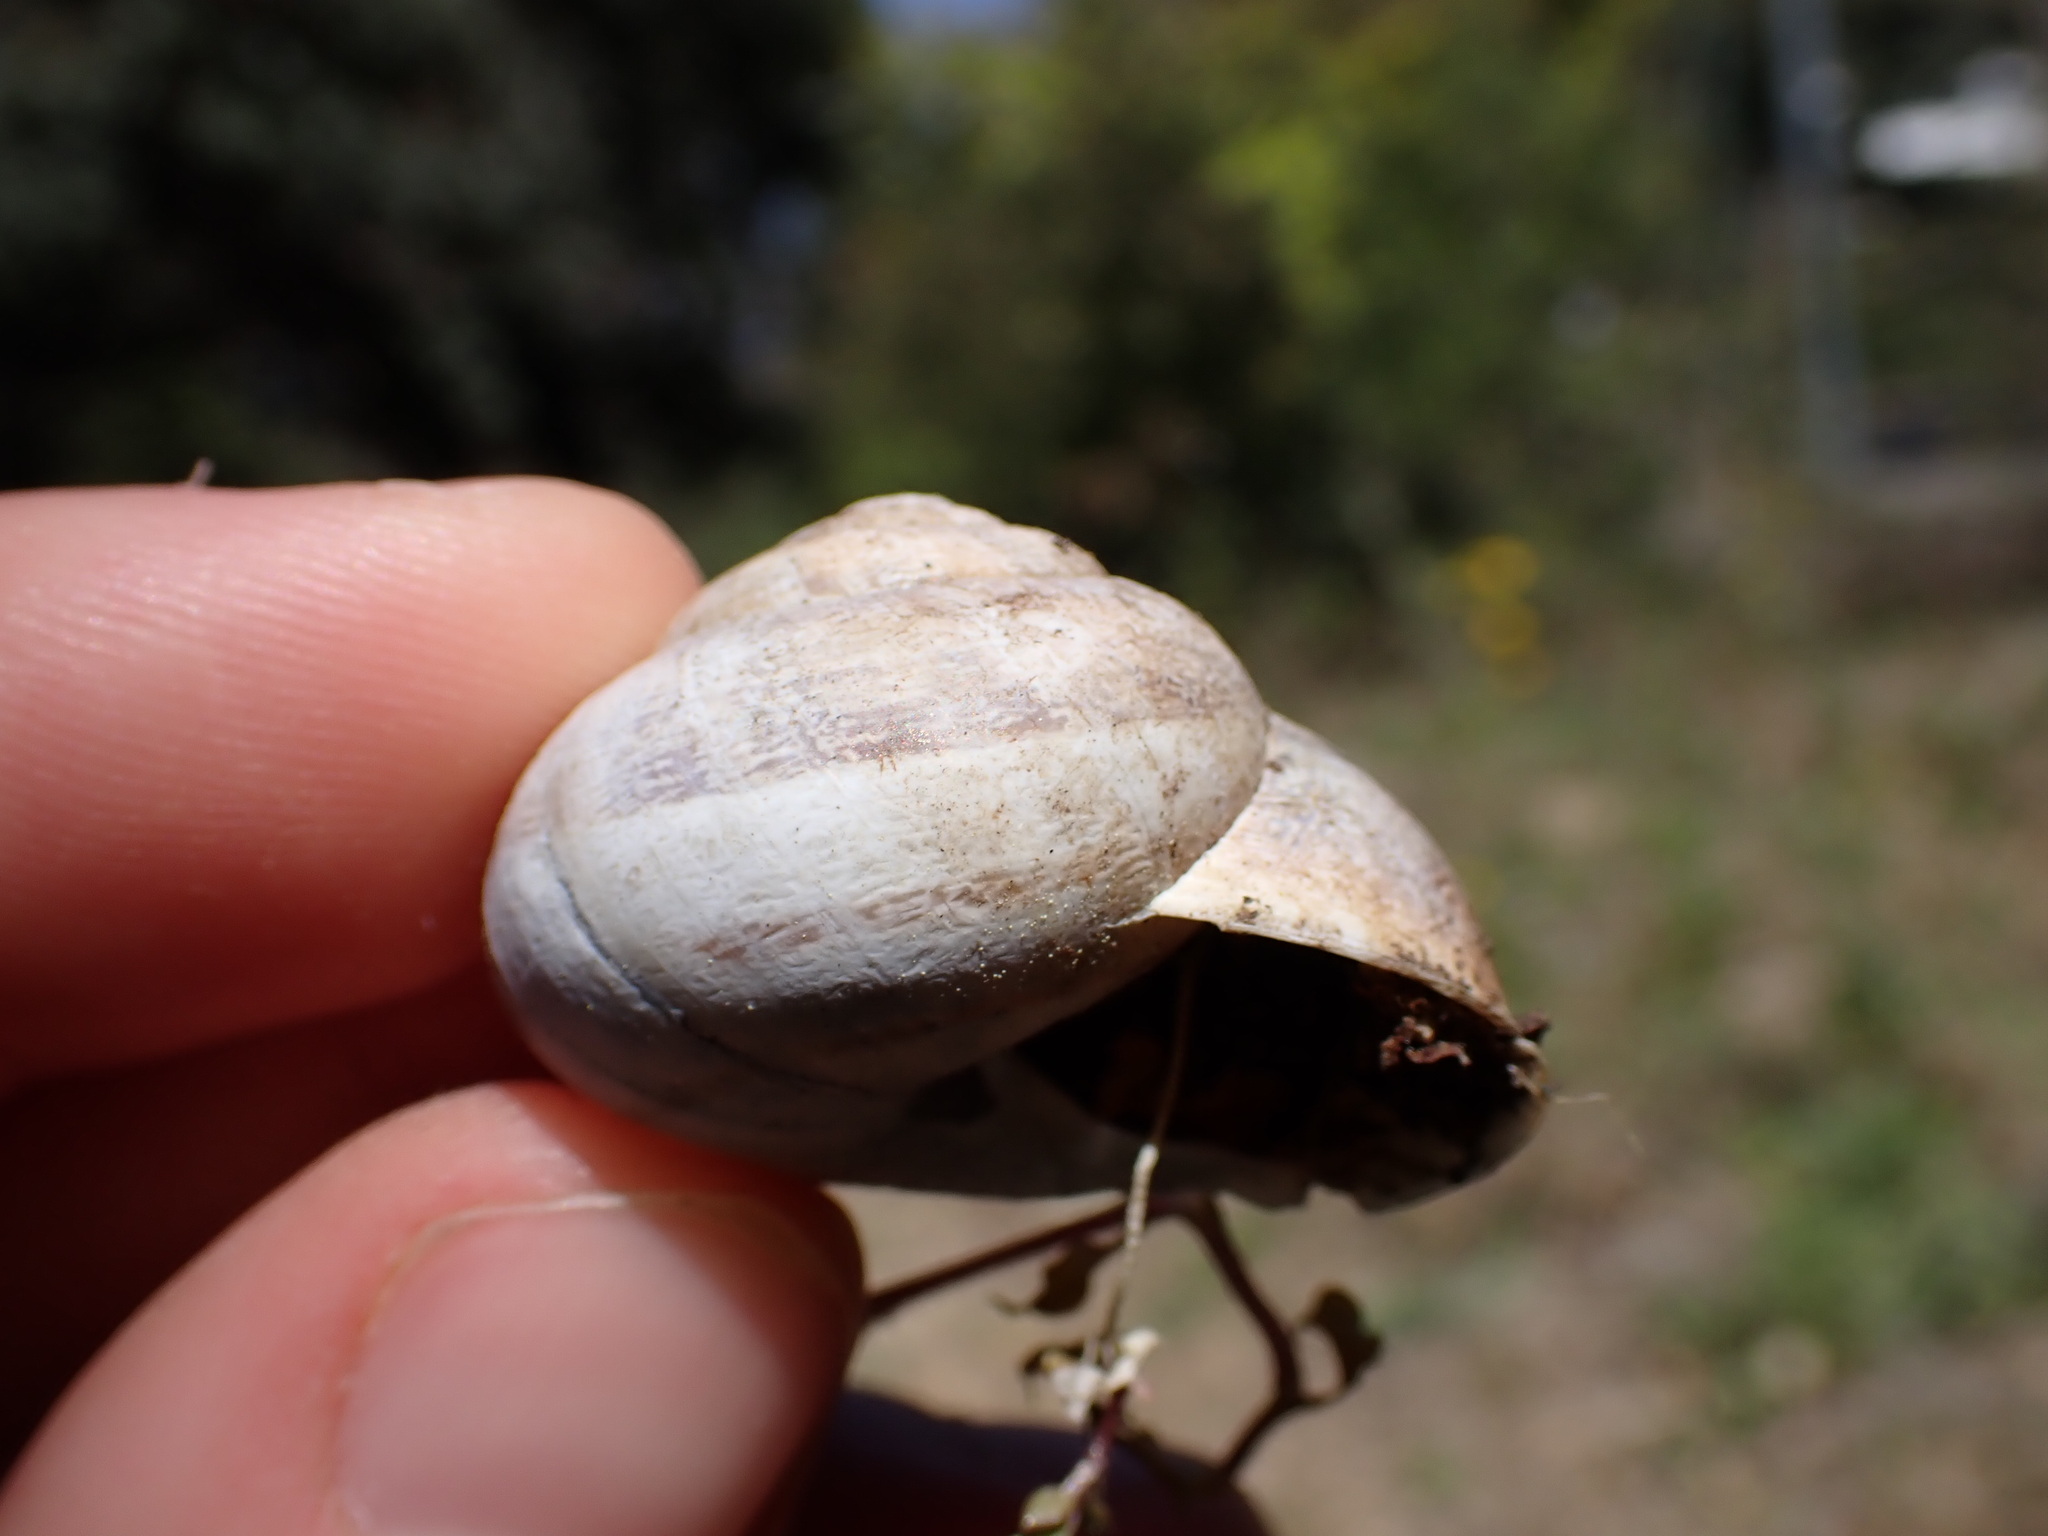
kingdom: Animalia
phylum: Mollusca
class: Gastropoda
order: Stylommatophora
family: Helicidae
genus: Eobania
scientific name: Eobania vermiculata
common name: Chocolateband snail
